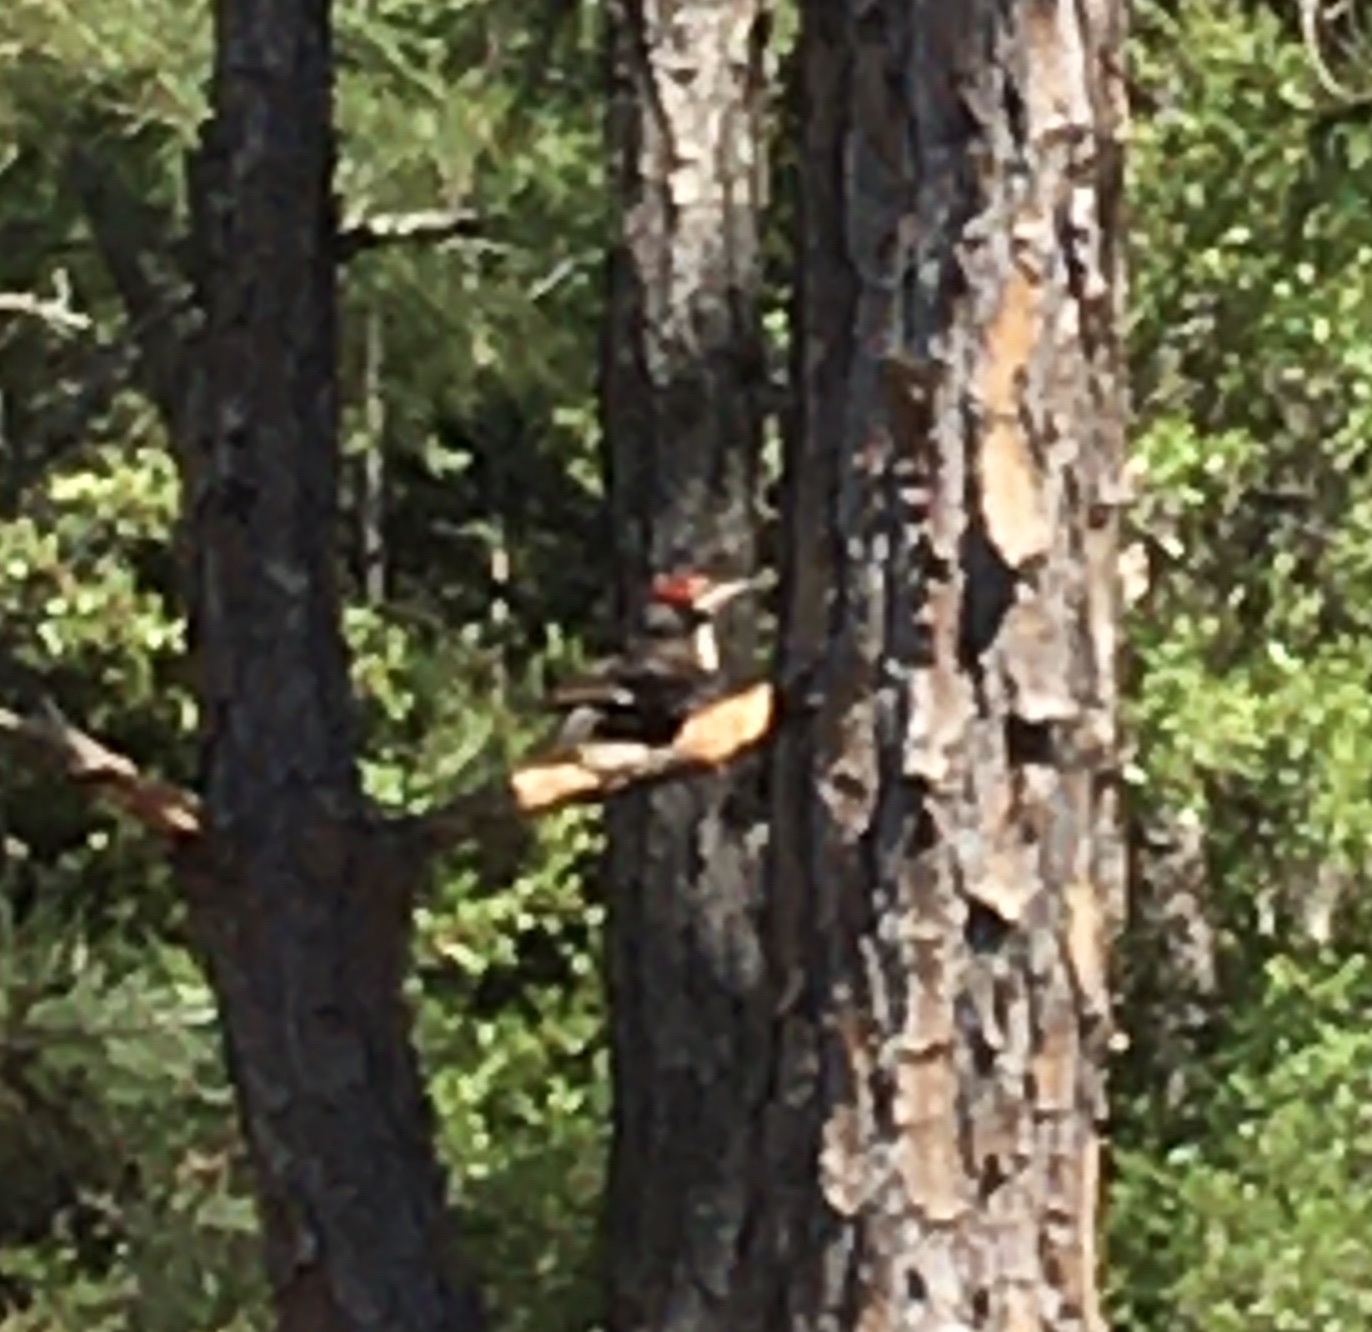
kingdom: Animalia
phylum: Chordata
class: Aves
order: Piciformes
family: Picidae
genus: Dryocopus
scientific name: Dryocopus pileatus
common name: Pileated woodpecker
